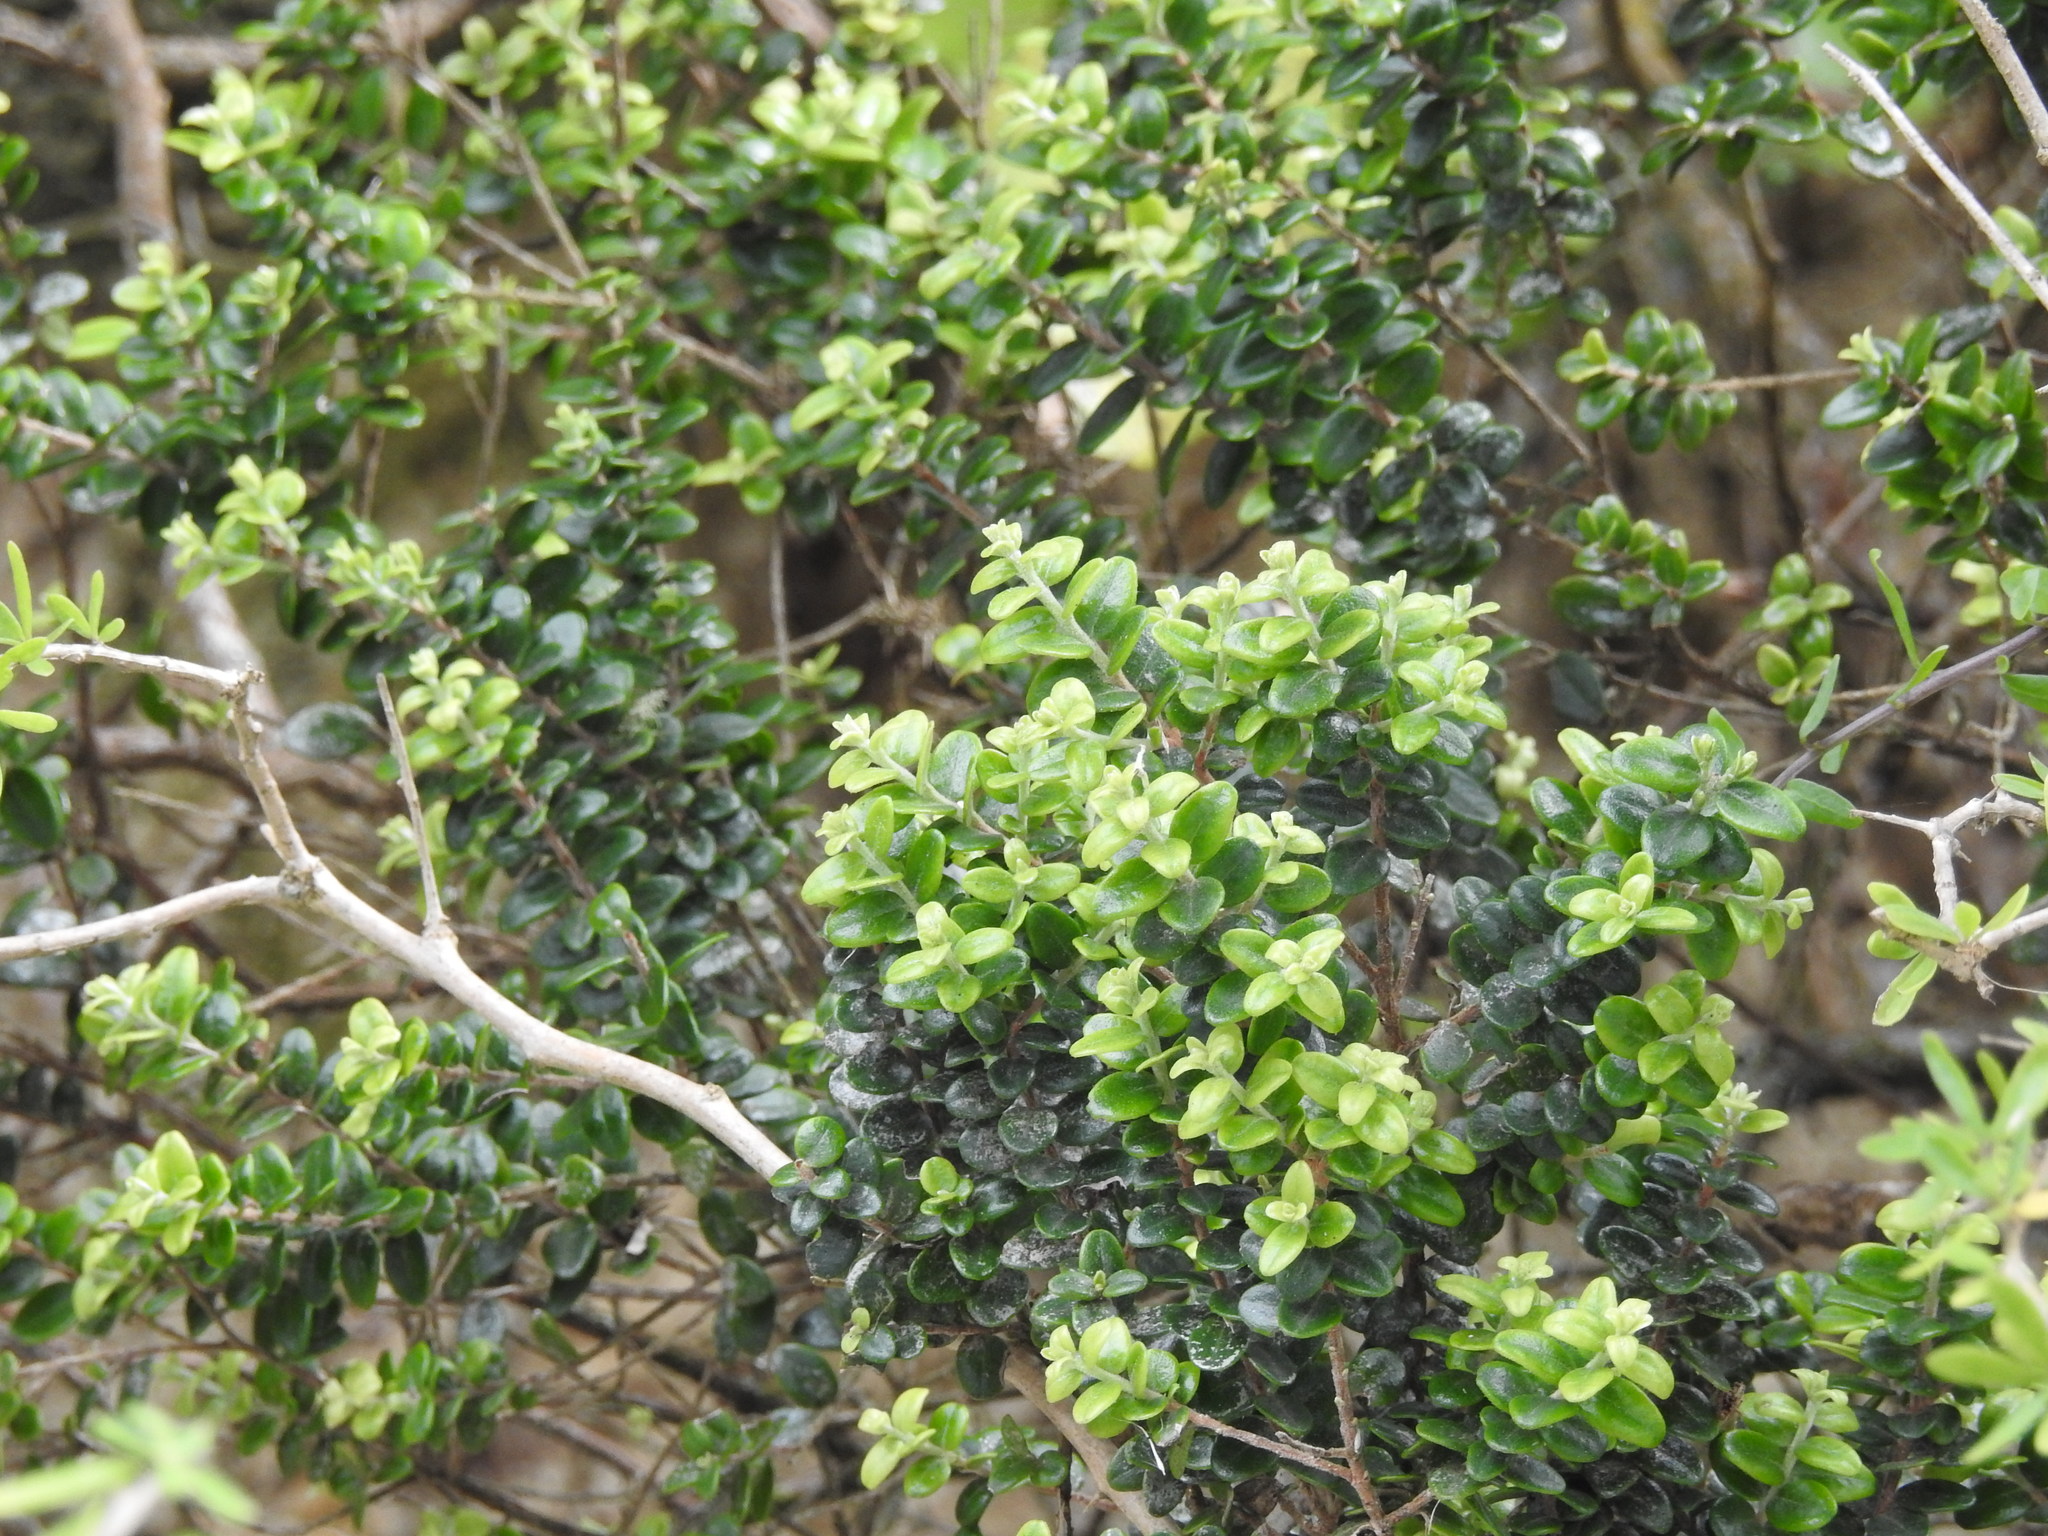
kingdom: Plantae
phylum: Tracheophyta
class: Magnoliopsida
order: Myrtales
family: Myrtaceae
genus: Metrosideros
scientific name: Metrosideros perforata
